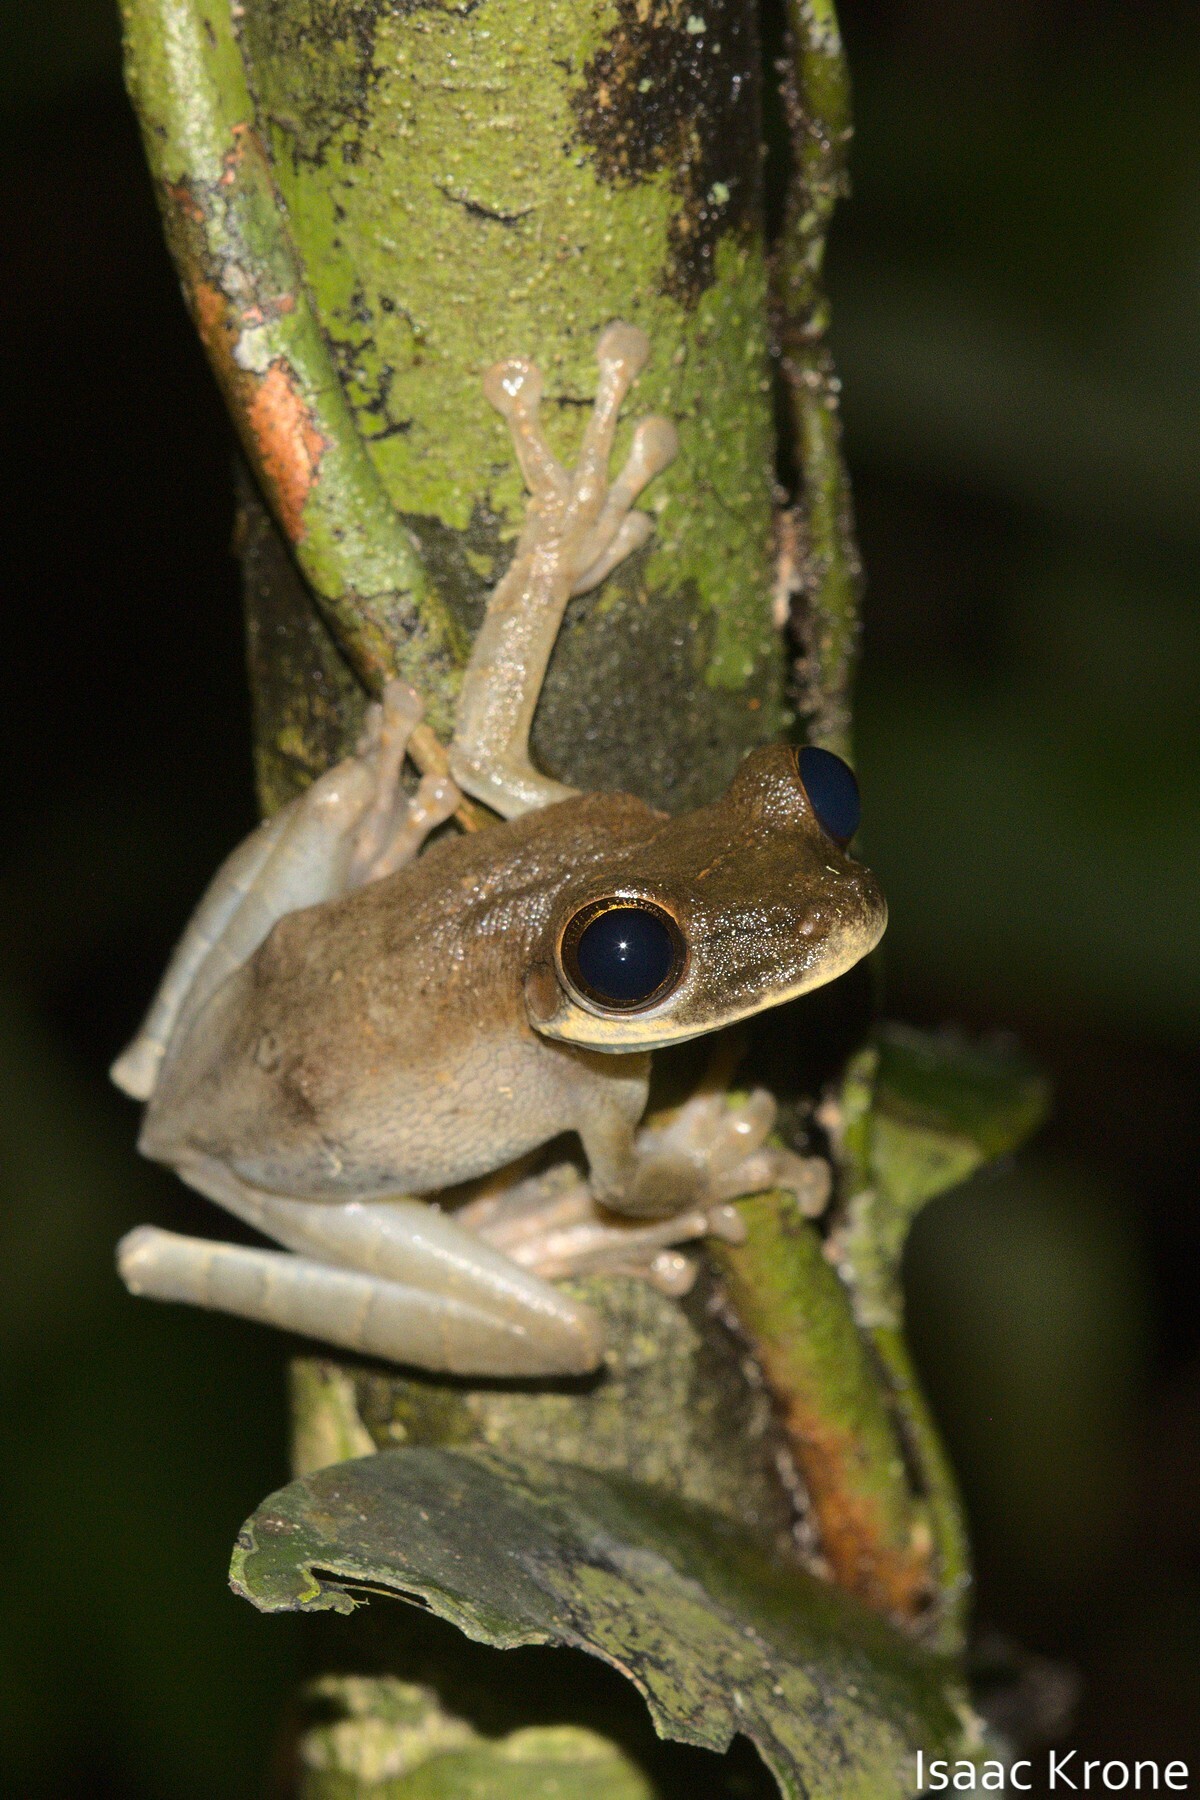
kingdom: Animalia
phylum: Chordata
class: Amphibia
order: Anura
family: Hylidae
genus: Osteocephalus
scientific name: Osteocephalus deridens
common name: Funny slender-legged treefrog
